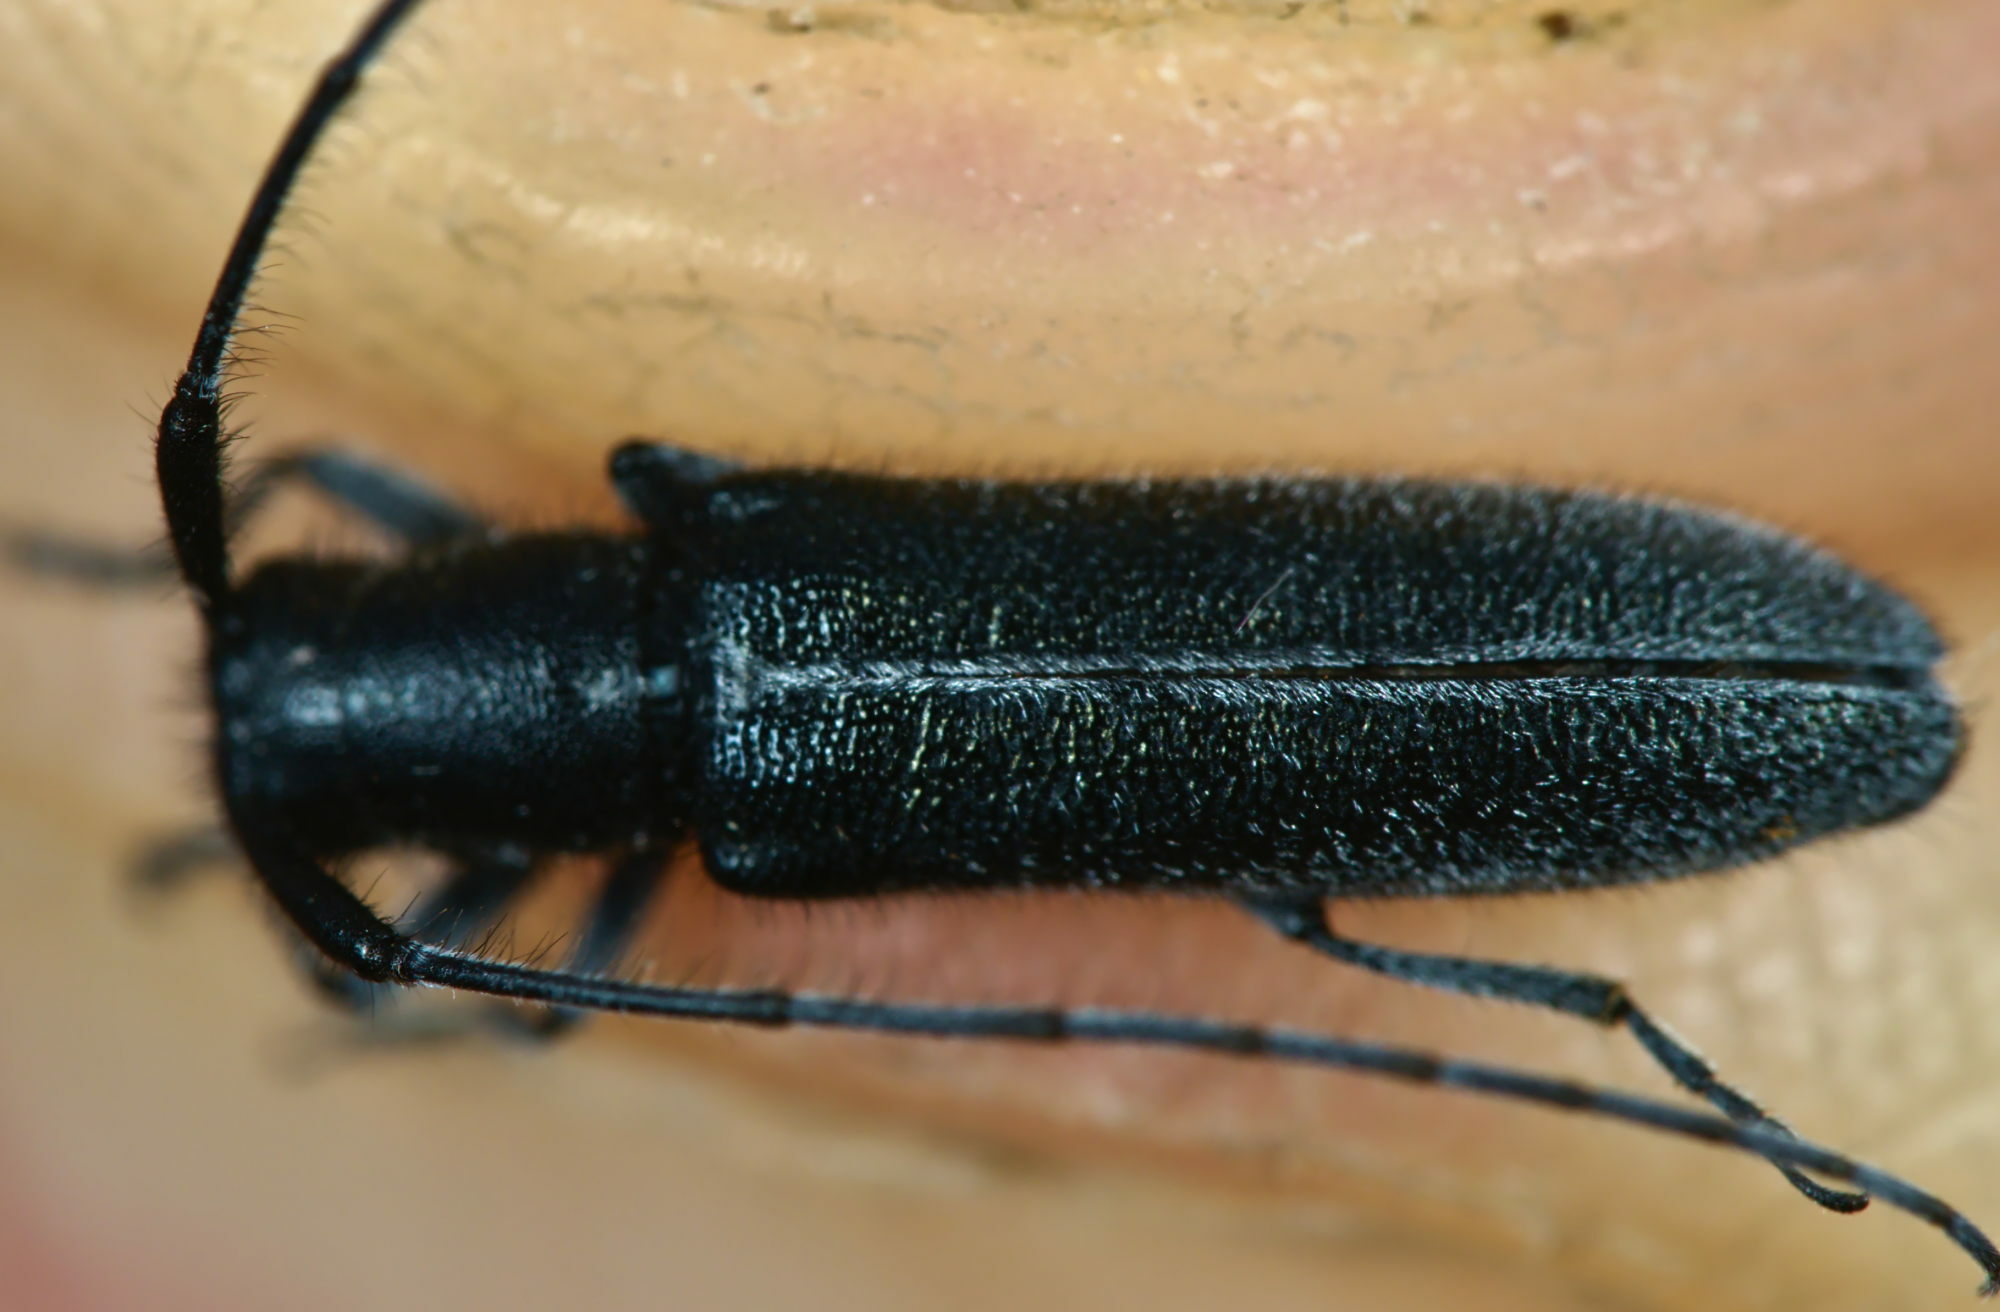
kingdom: Animalia
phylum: Arthropoda
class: Insecta
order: Coleoptera
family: Cerambycidae
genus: Agapanthia
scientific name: Agapanthia cardui
